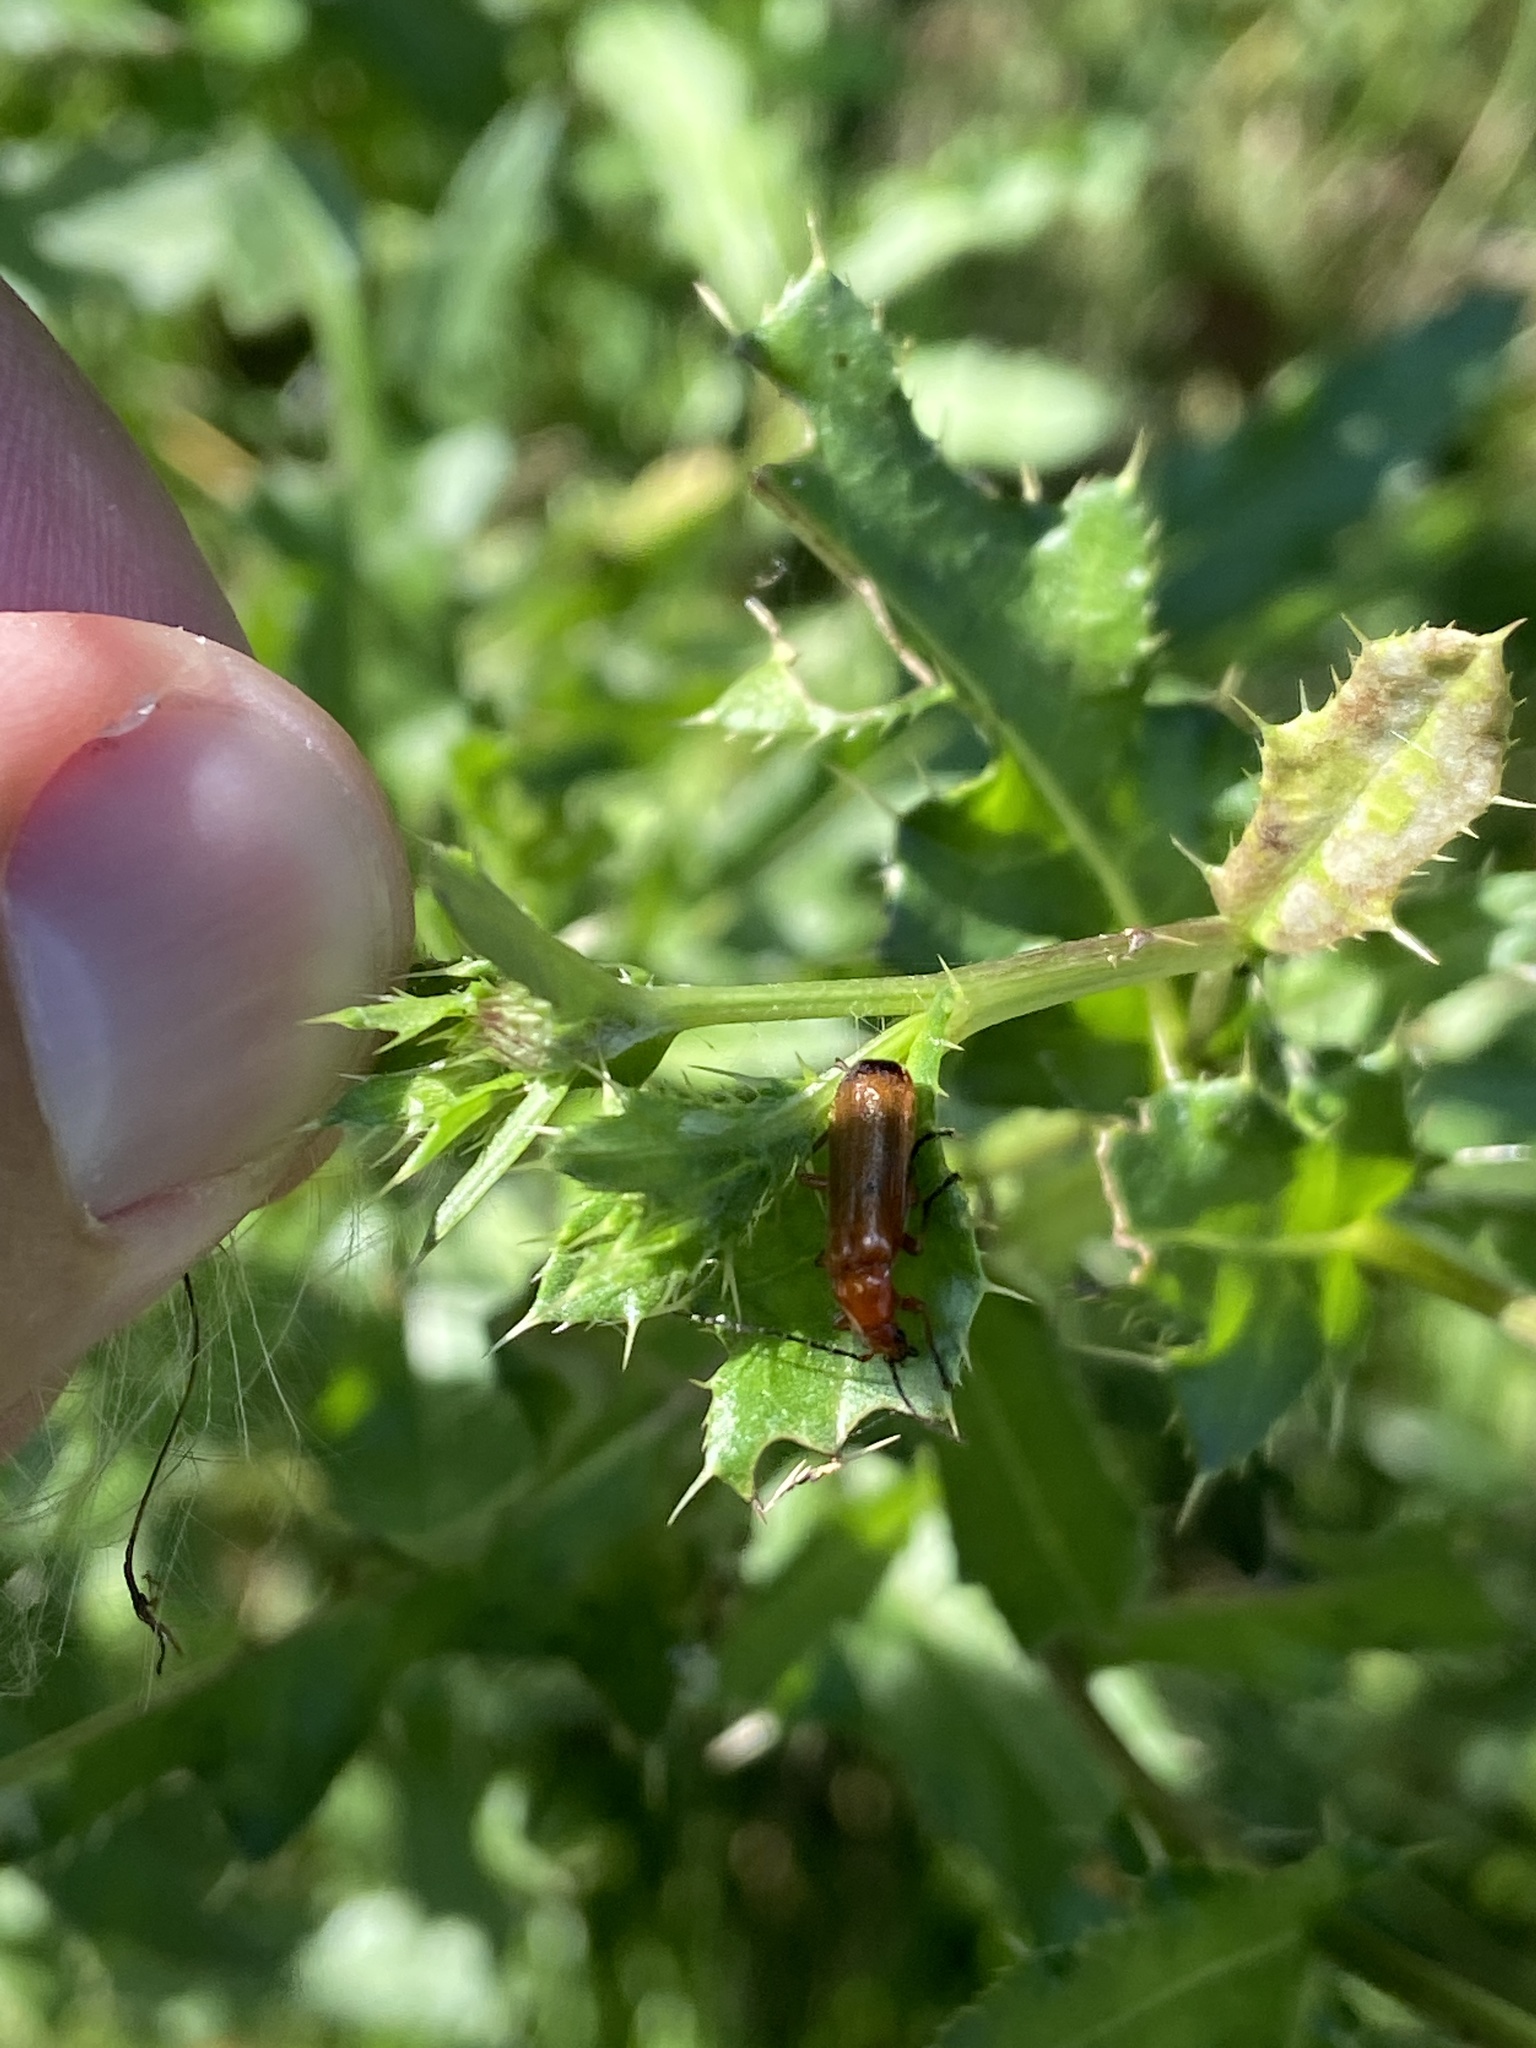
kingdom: Animalia
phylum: Arthropoda
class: Insecta
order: Coleoptera
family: Cantharidae
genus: Rhagonycha
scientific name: Rhagonycha fulva
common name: Common red soldier beetle
